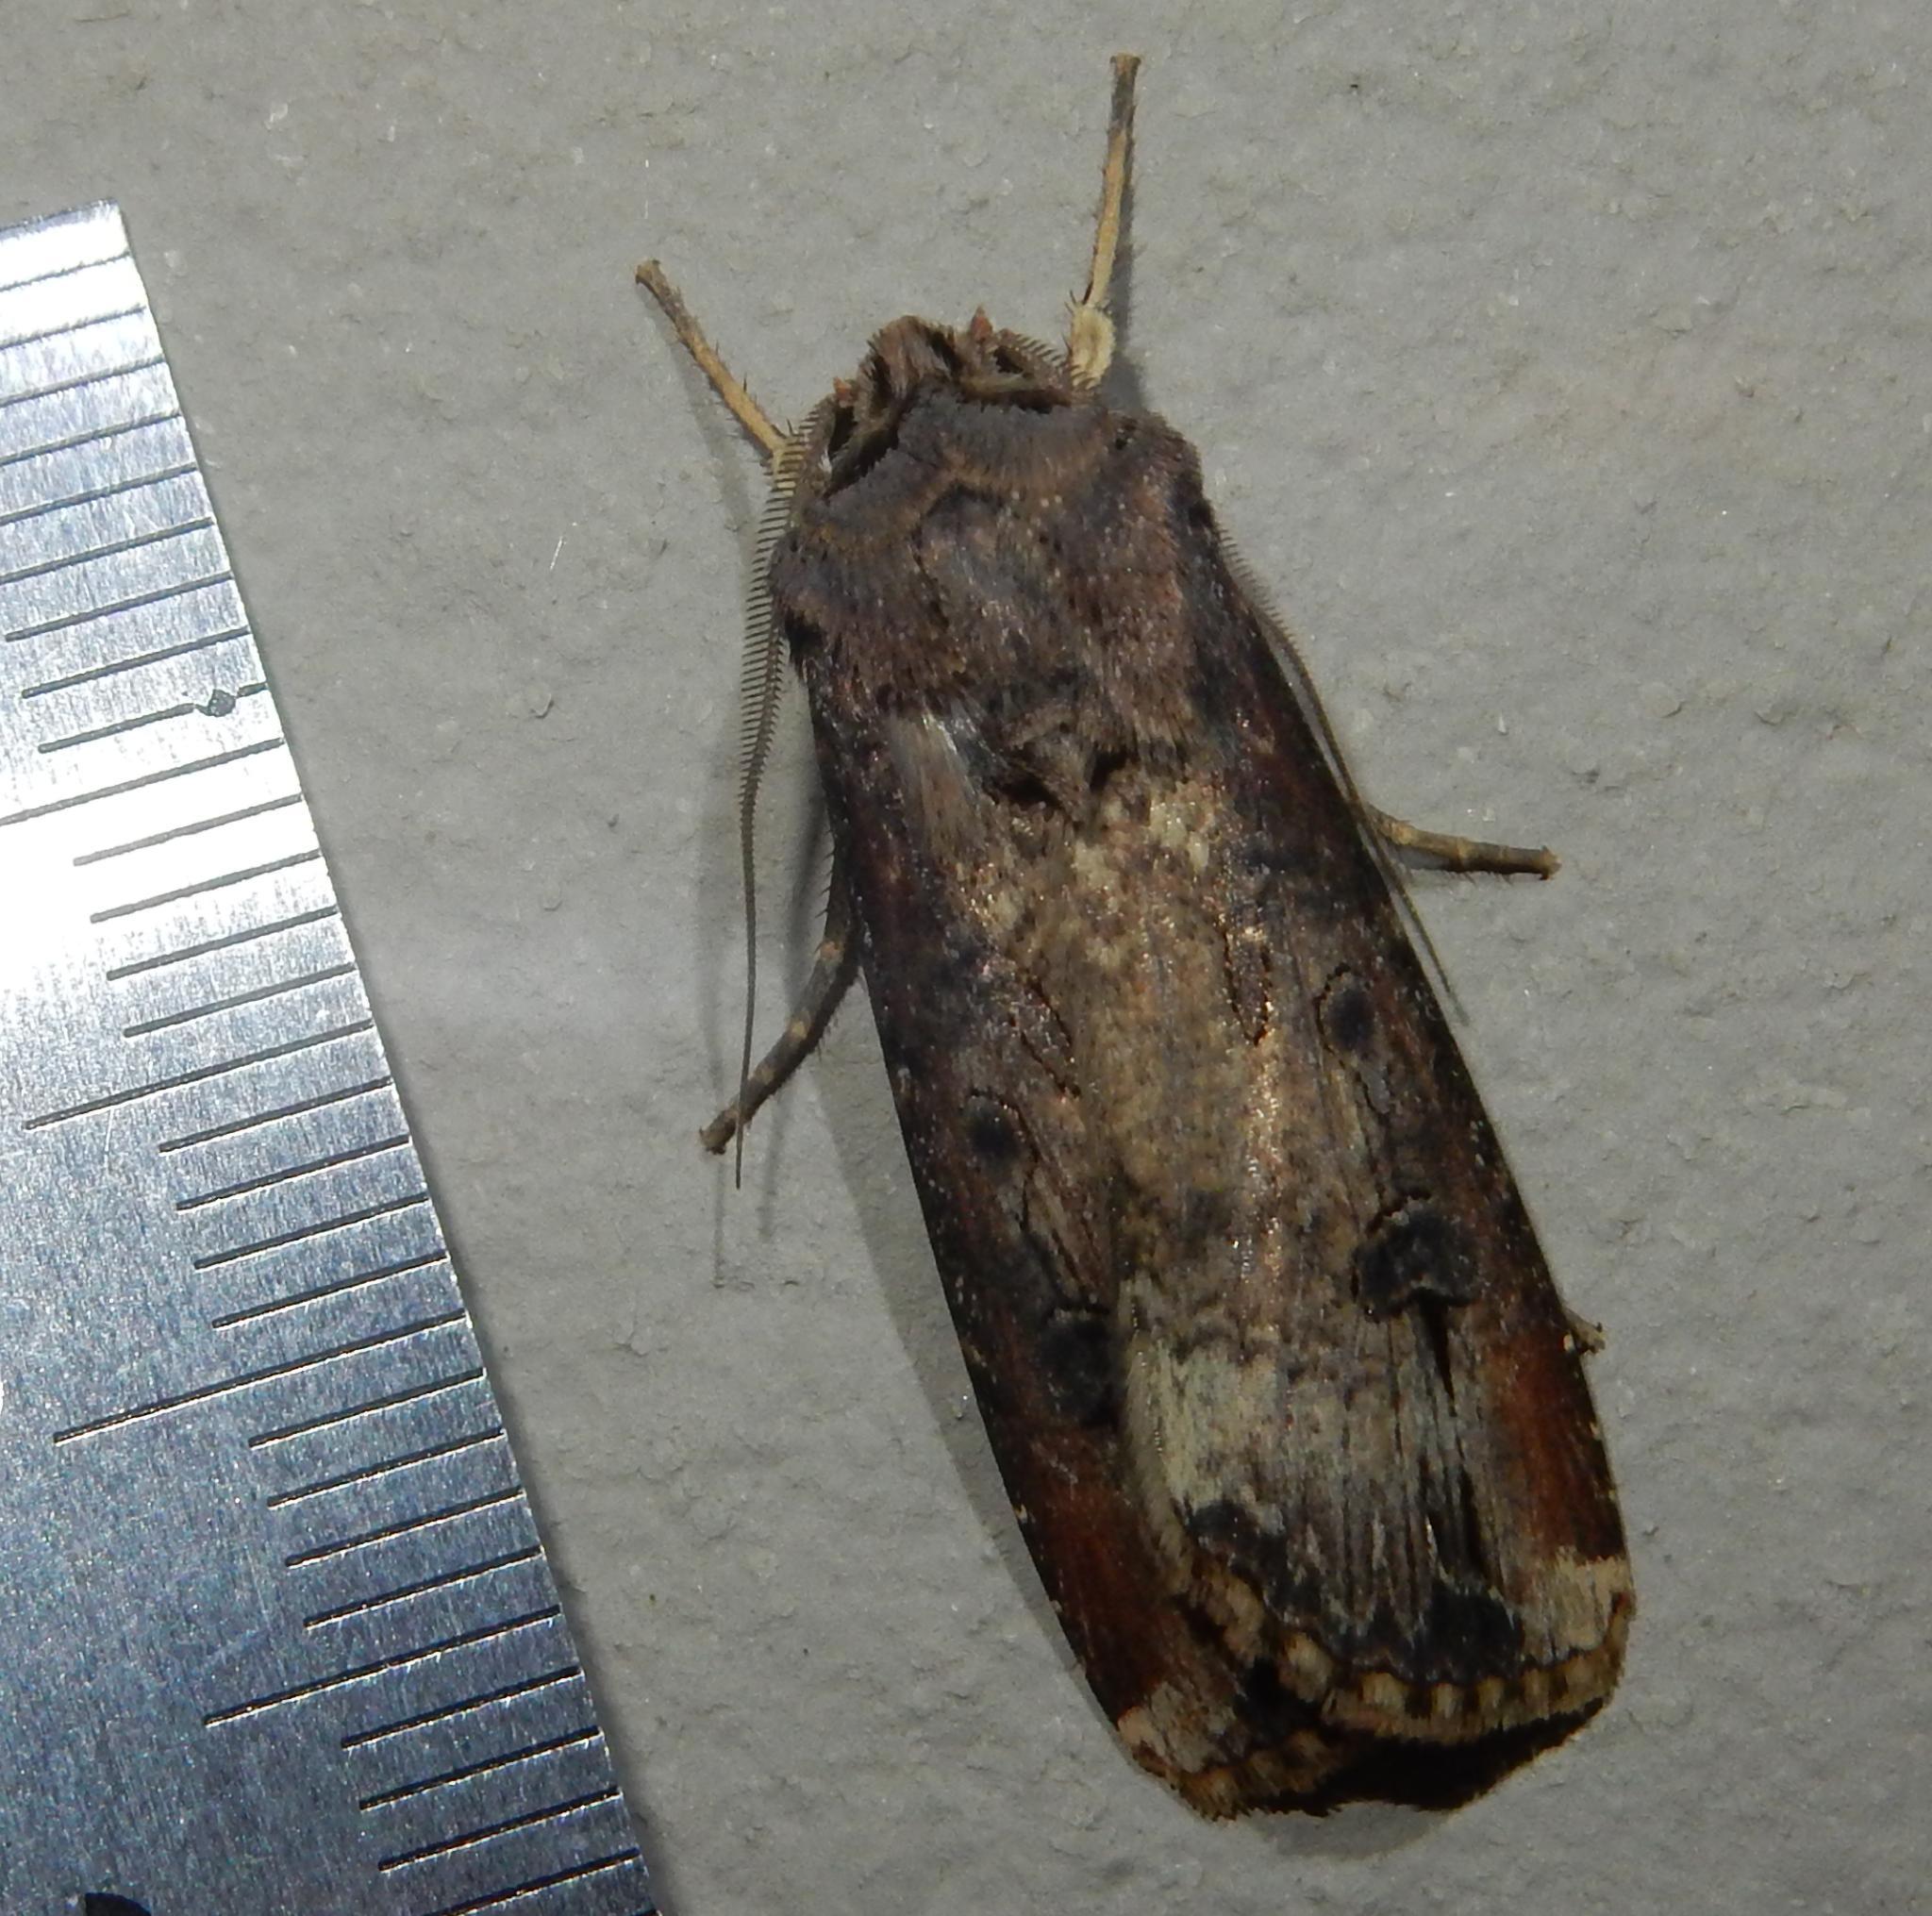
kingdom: Animalia
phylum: Arthropoda
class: Insecta
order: Lepidoptera
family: Noctuidae
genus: Agrotis
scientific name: Agrotis ipsilon
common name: Dark sword-grass
